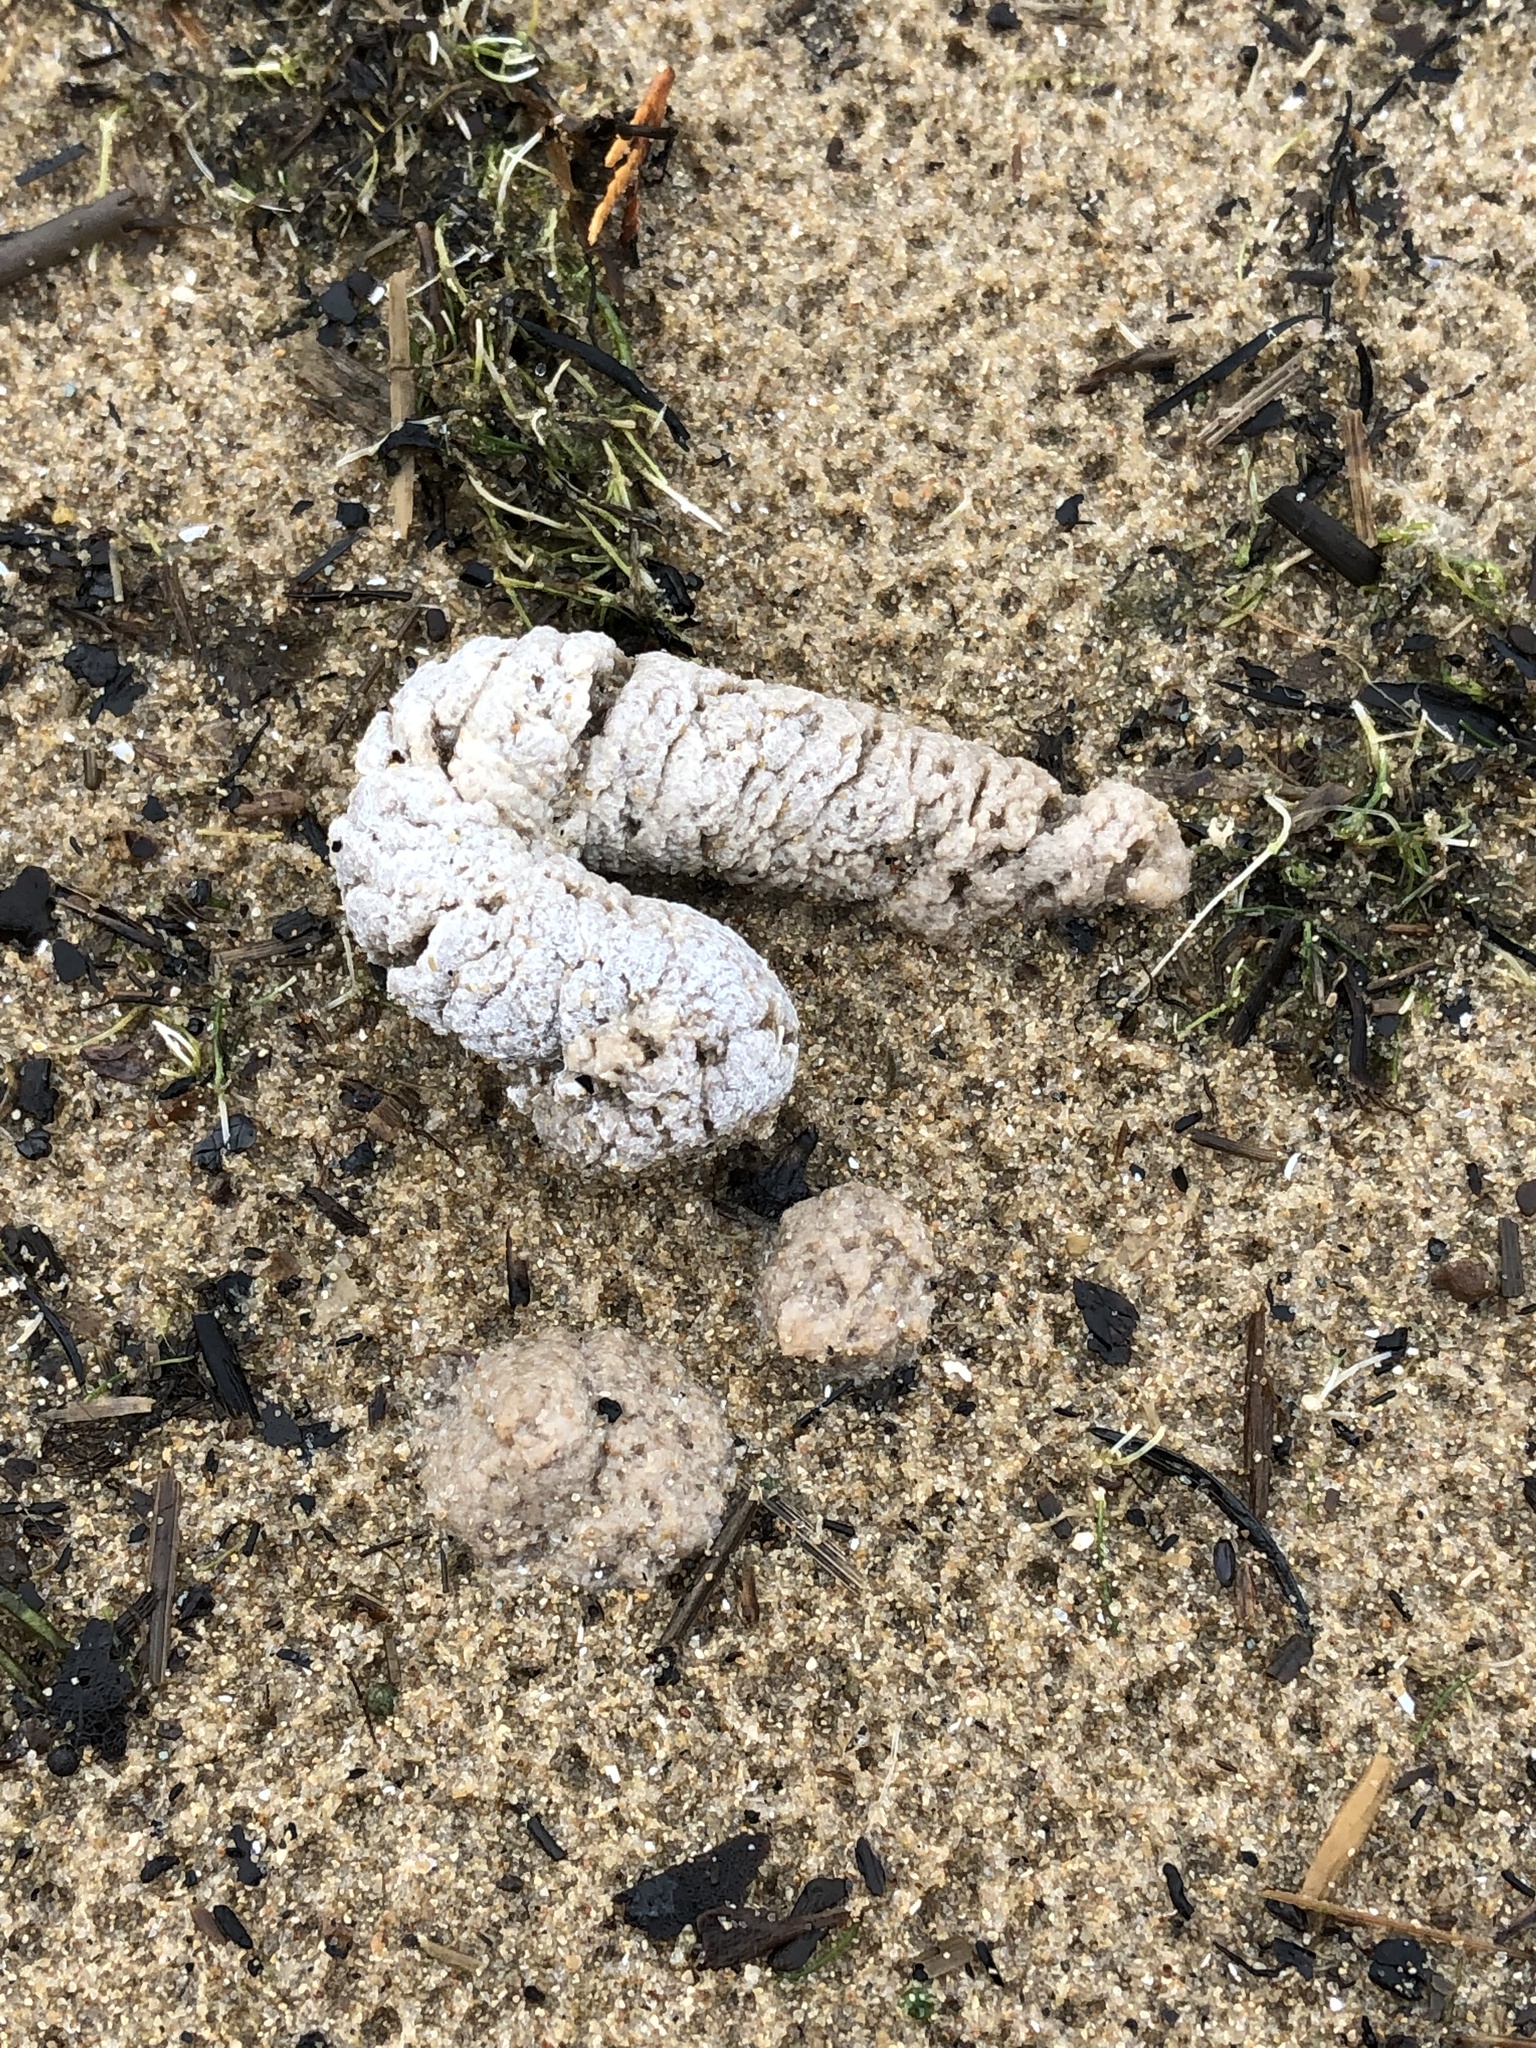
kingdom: Animalia
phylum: Chordata
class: Aves
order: Anseriformes
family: Anatidae
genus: Branta
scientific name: Branta canadensis
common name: Canada goose
